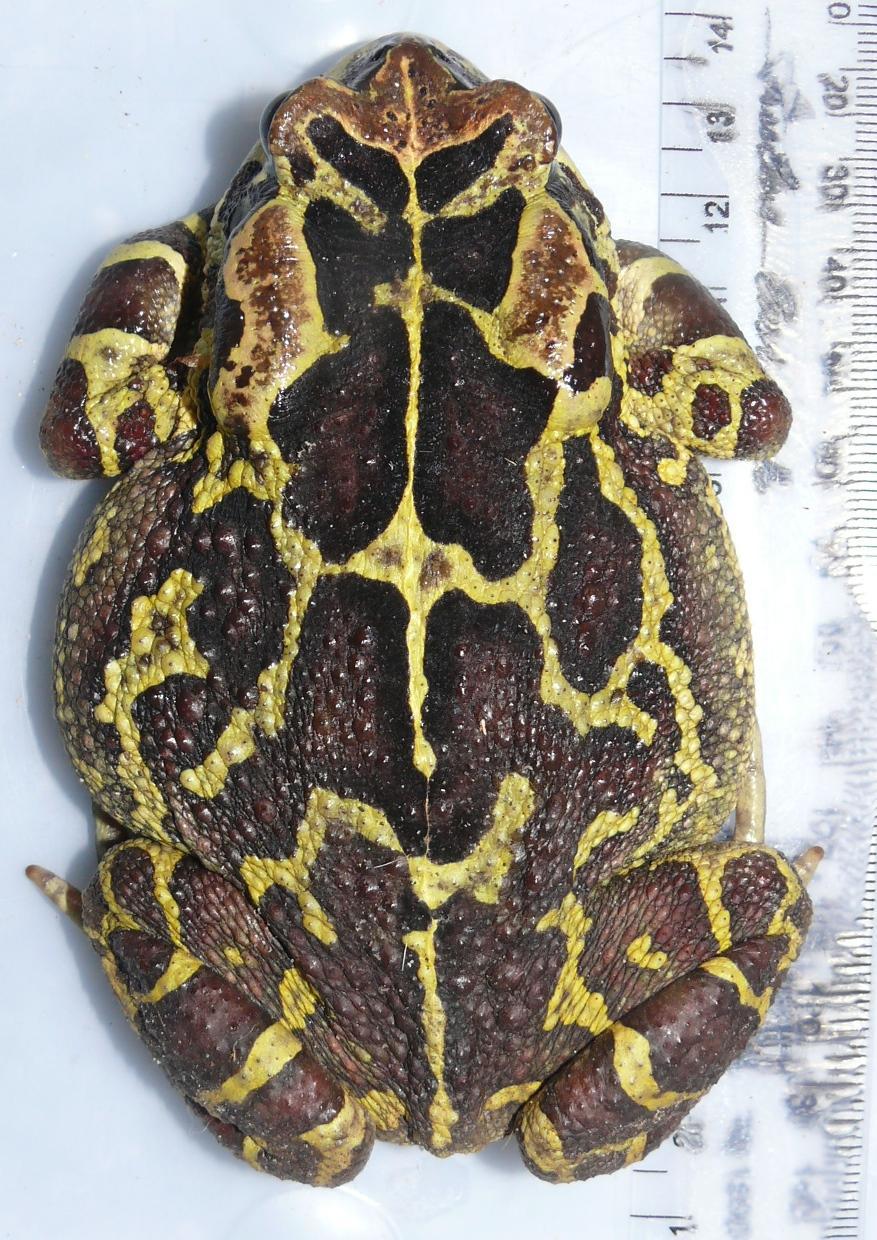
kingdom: Animalia
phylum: Chordata
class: Amphibia
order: Anura
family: Bufonidae
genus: Sclerophrys
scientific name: Sclerophrys pantherina
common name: Panther toad
